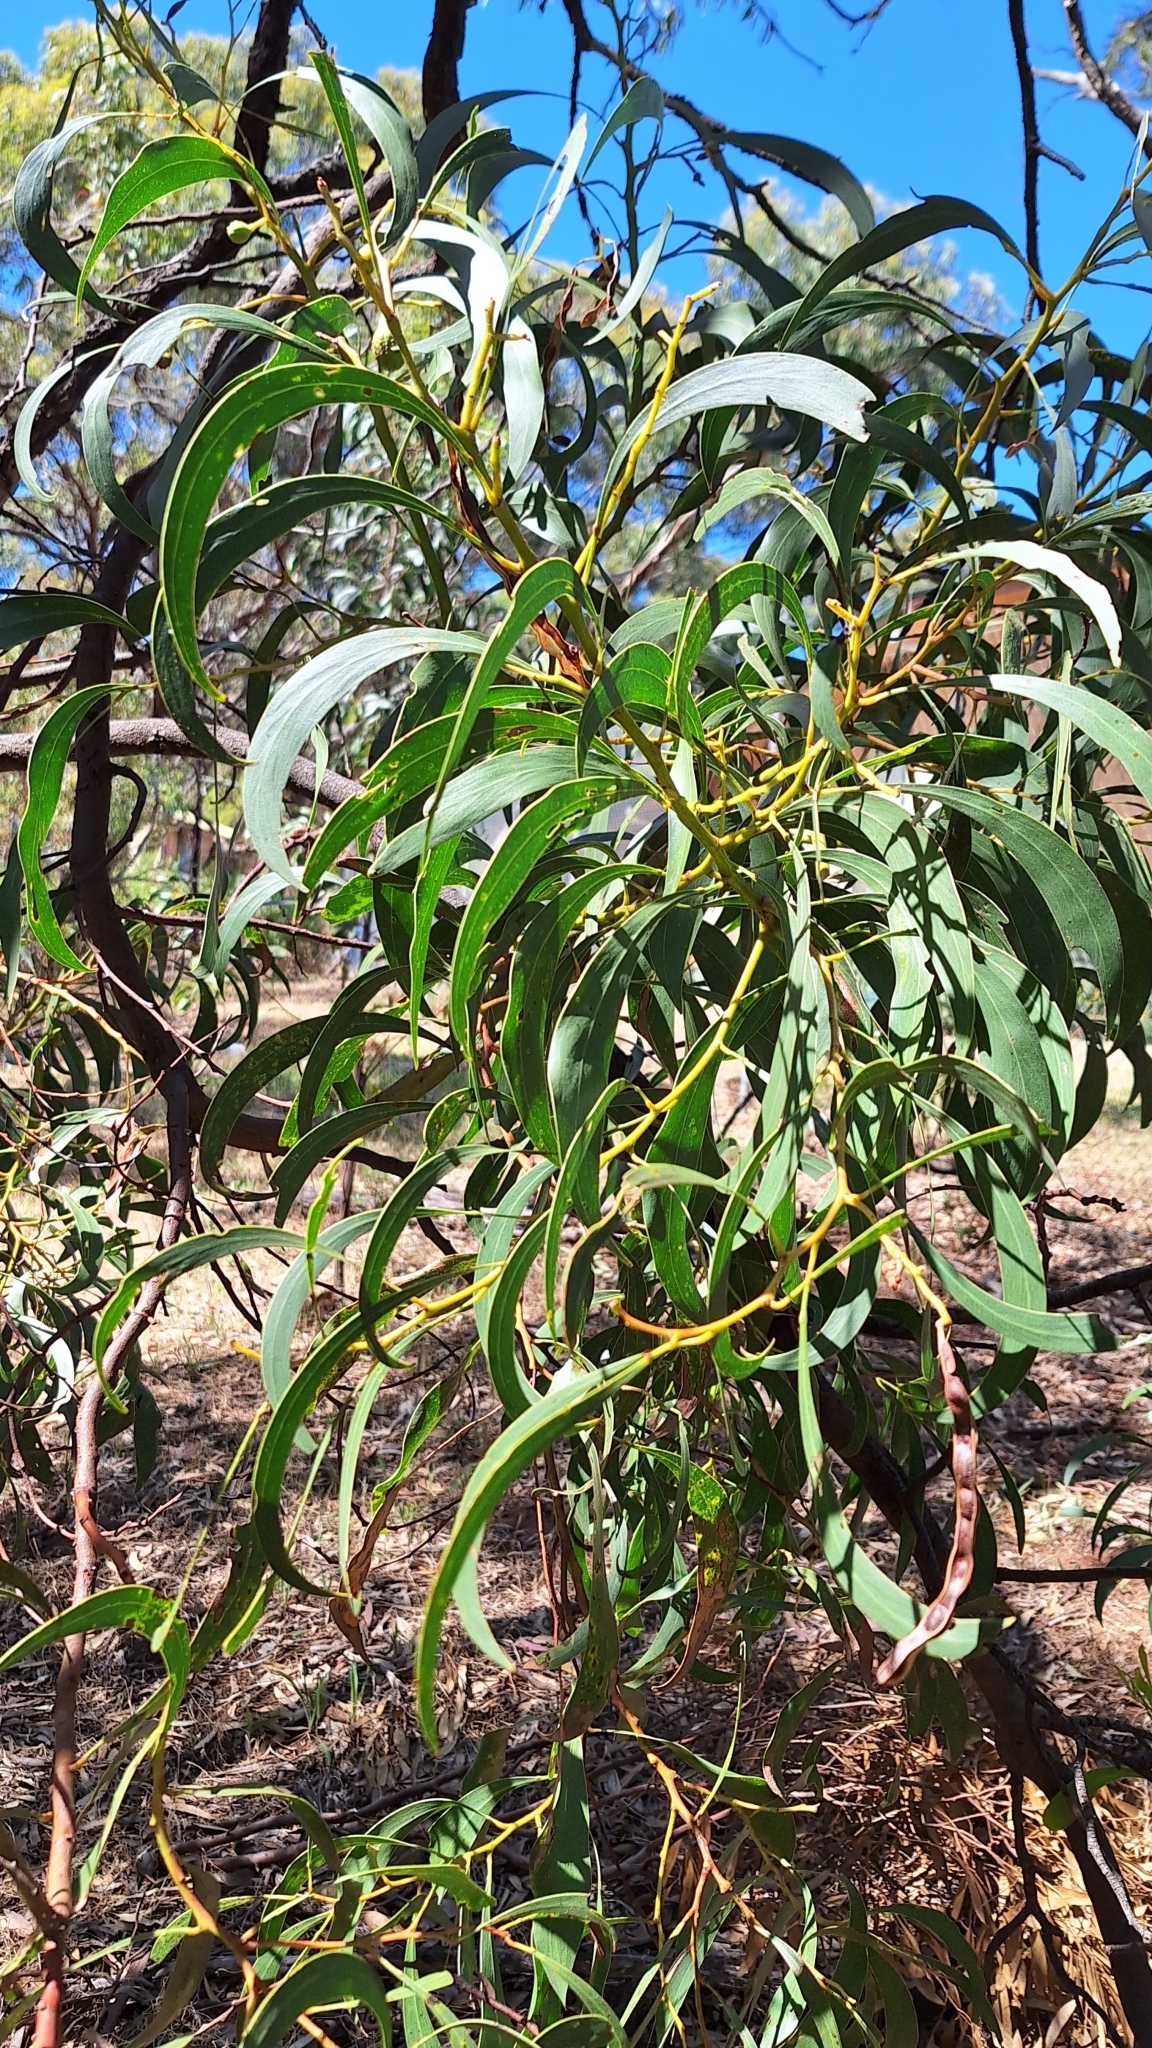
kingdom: Plantae
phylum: Tracheophyta
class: Magnoliopsida
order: Fabales
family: Fabaceae
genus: Acacia
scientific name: Acacia pycnantha
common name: Golden wattle
